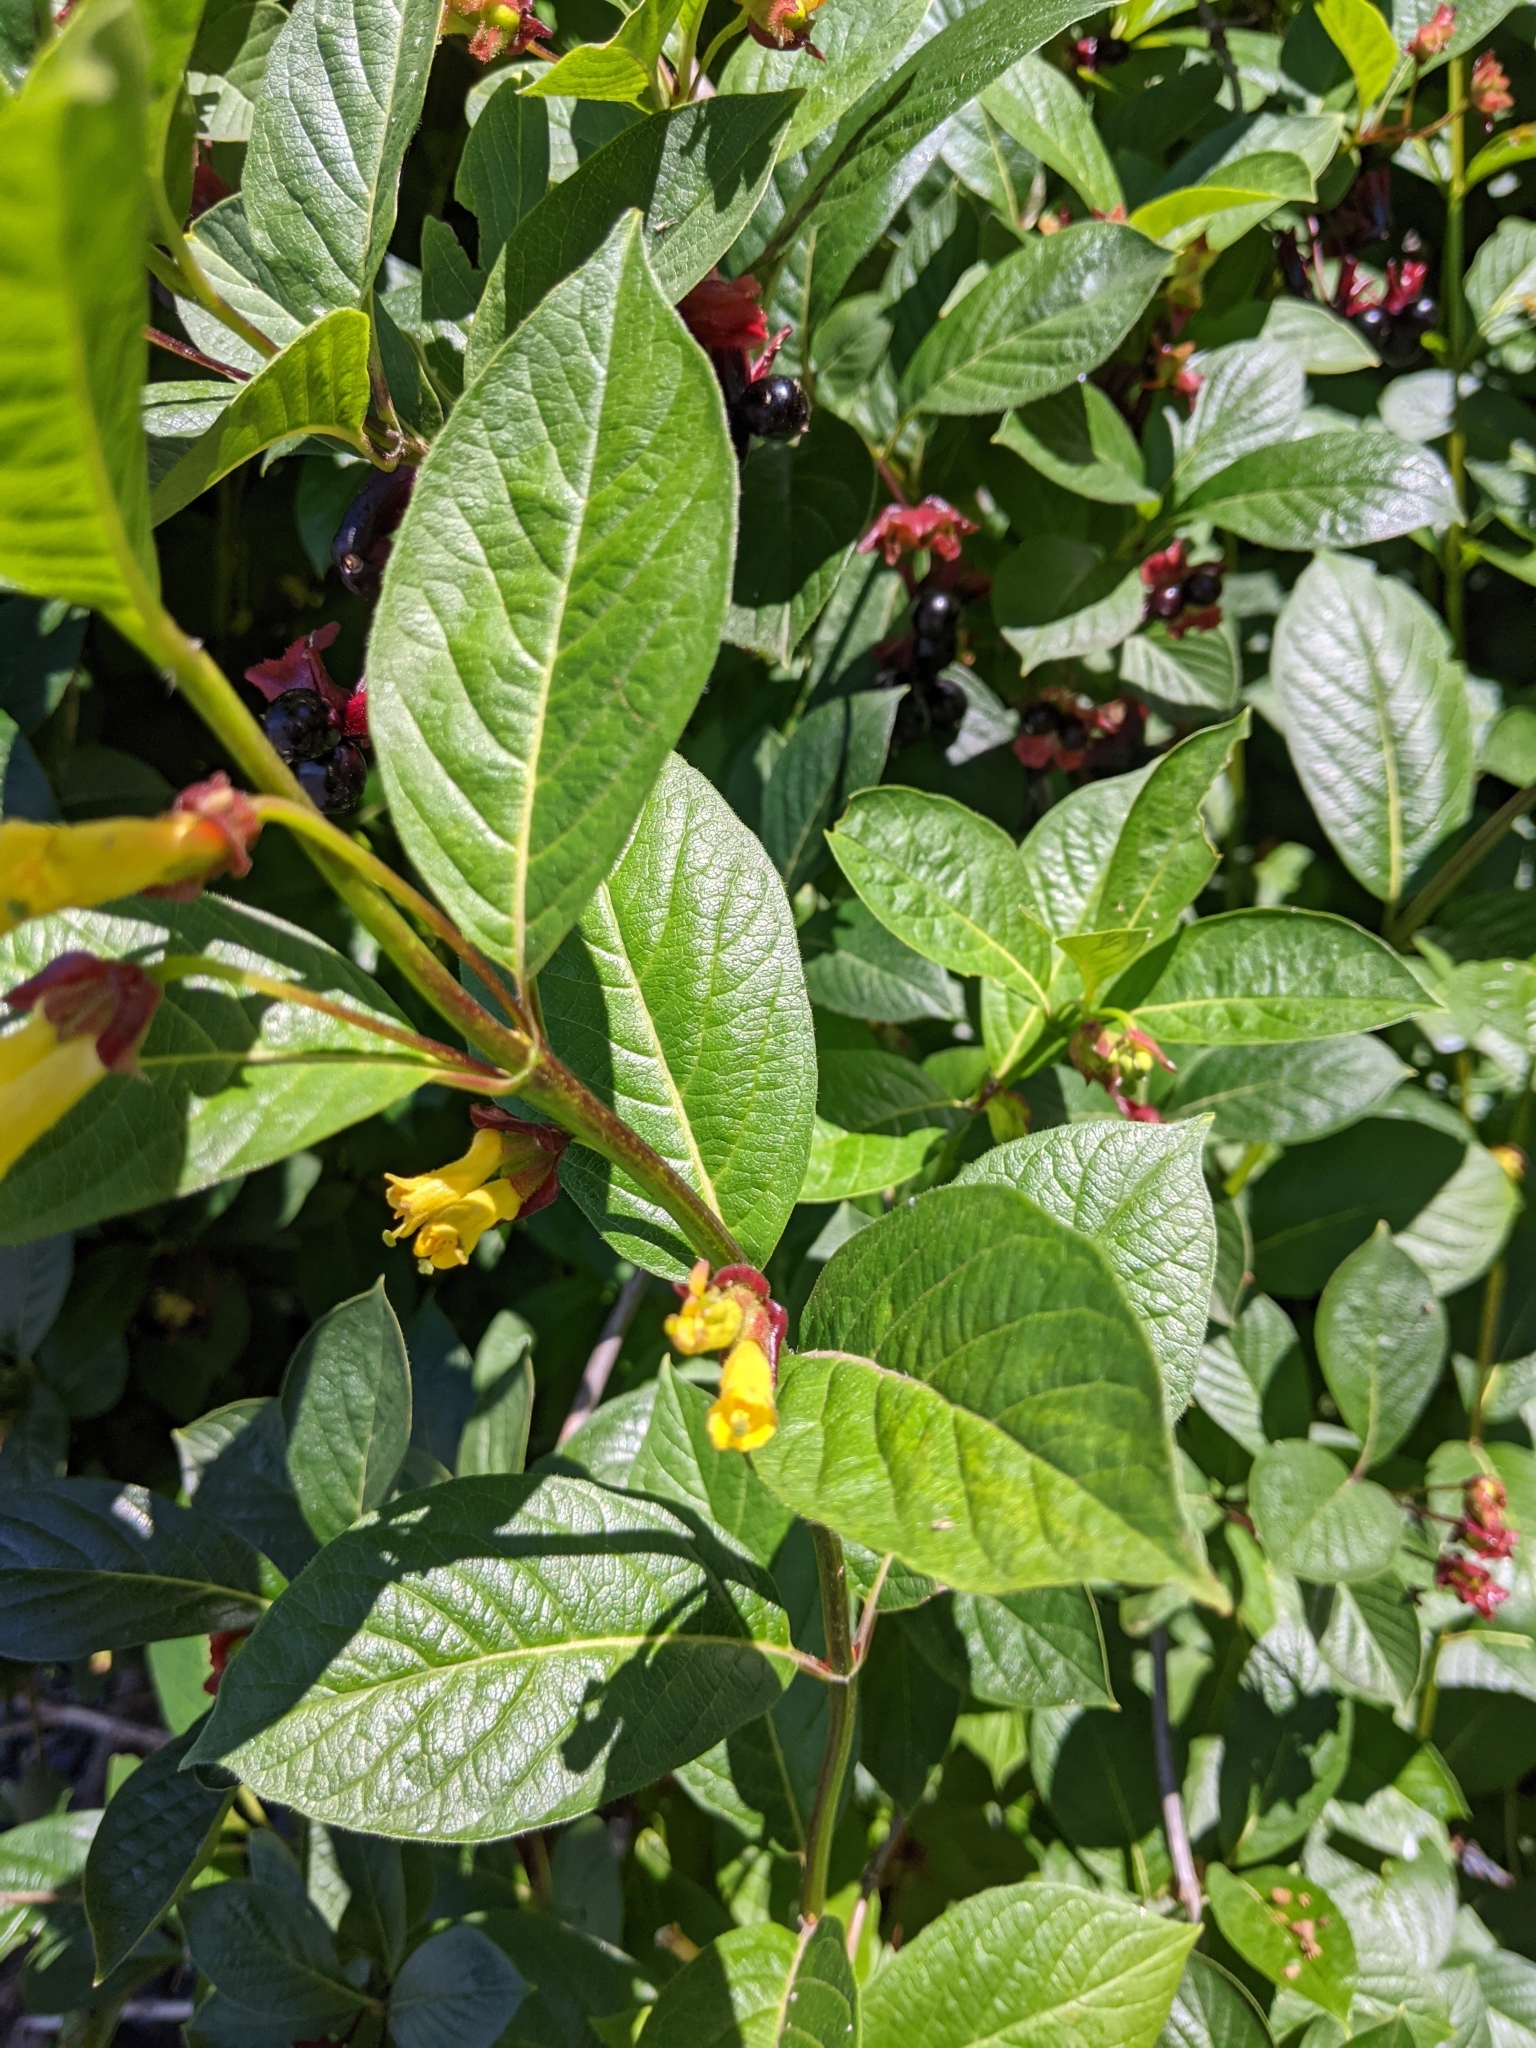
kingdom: Plantae
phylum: Tracheophyta
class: Magnoliopsida
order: Dipsacales
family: Caprifoliaceae
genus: Lonicera
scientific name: Lonicera involucrata
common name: Californian honeysuckle
